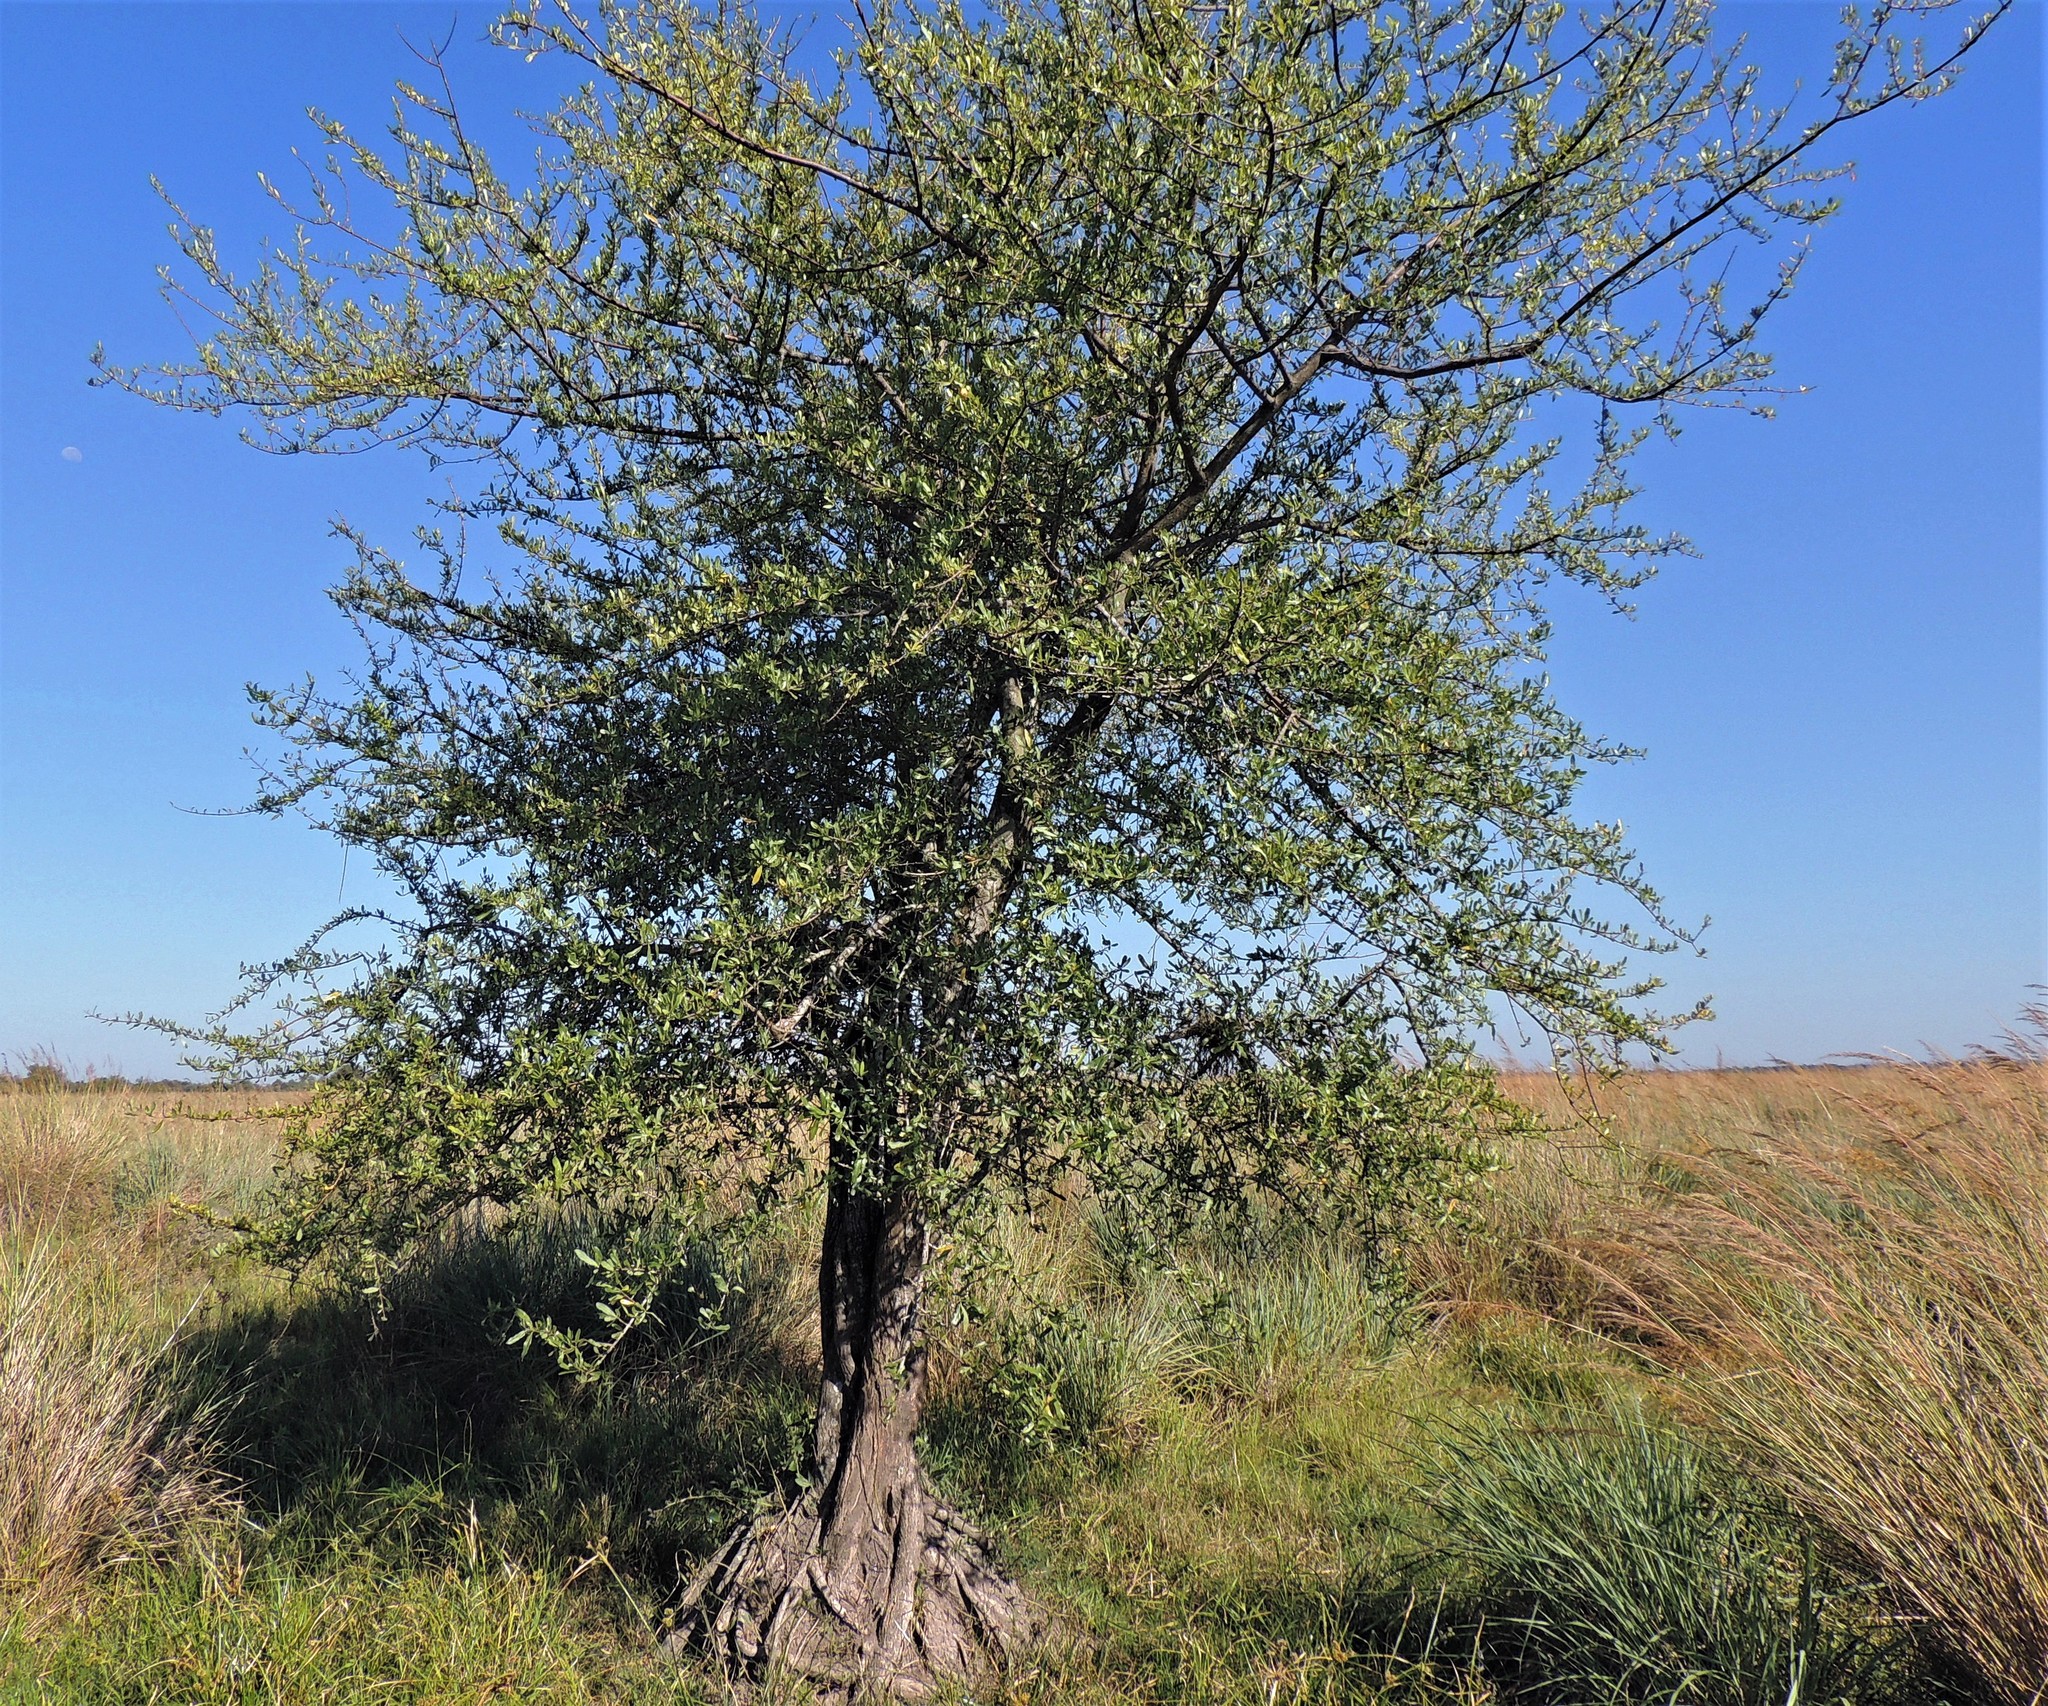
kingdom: Plantae
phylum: Tracheophyta
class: Magnoliopsida
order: Lamiales
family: Bignoniaceae
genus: Tabebuia
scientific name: Tabebuia nodosa
